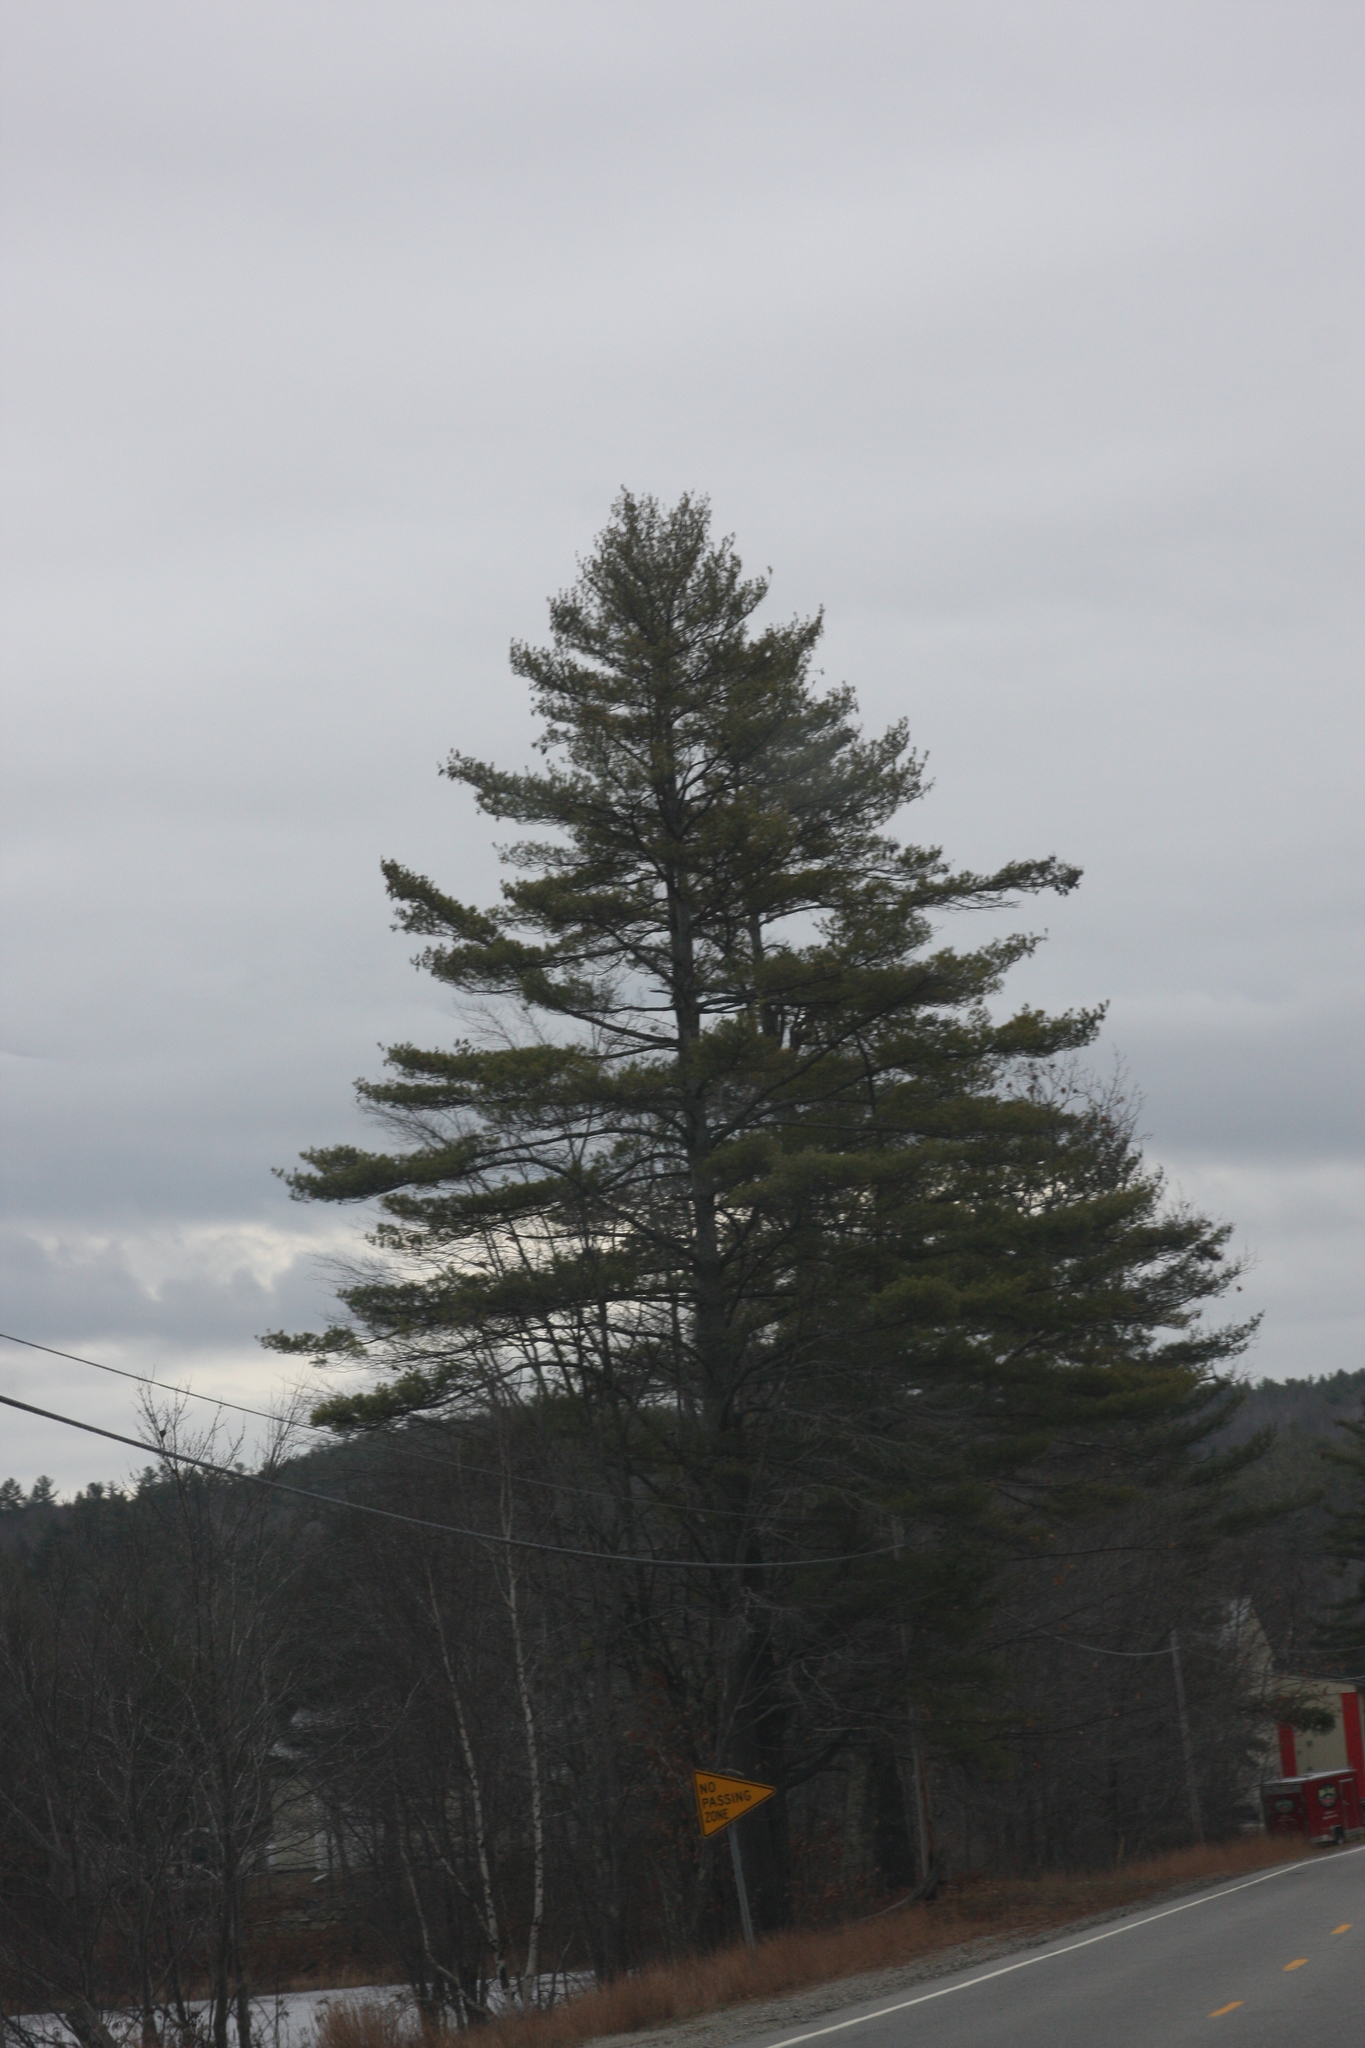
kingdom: Plantae
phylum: Tracheophyta
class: Pinopsida
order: Pinales
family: Pinaceae
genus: Pinus
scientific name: Pinus strobus
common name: Weymouth pine
